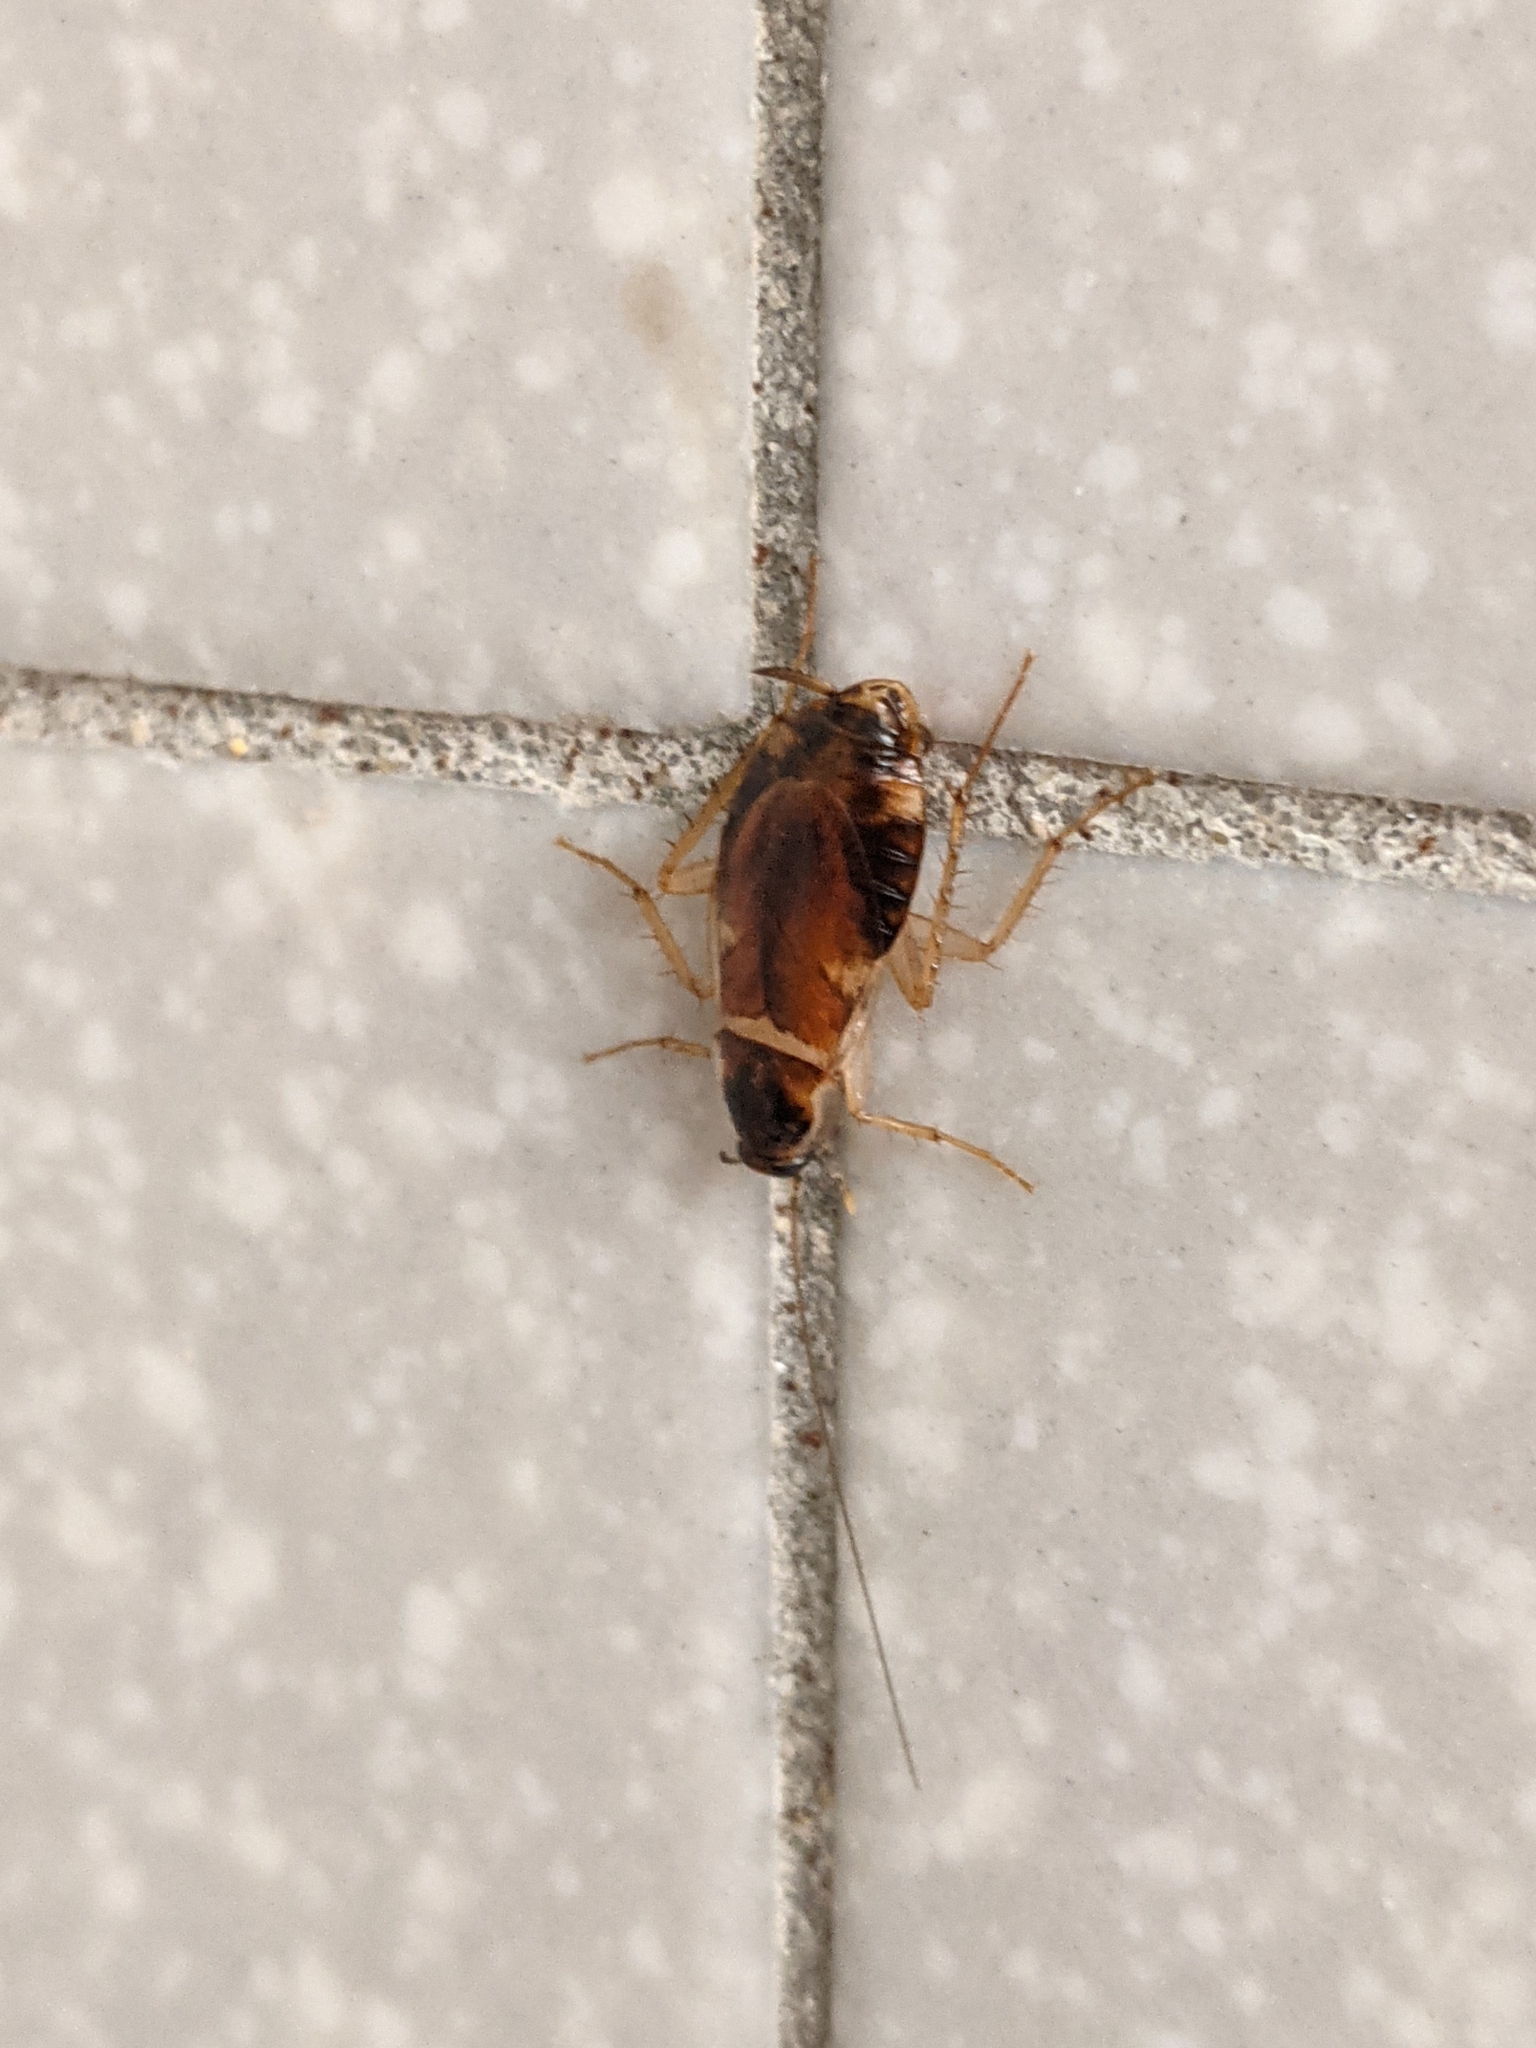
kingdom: Animalia
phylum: Arthropoda
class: Insecta
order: Blattodea
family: Ectobiidae
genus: Supella
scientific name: Supella longipalpa
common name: Brown-banded cockroach
